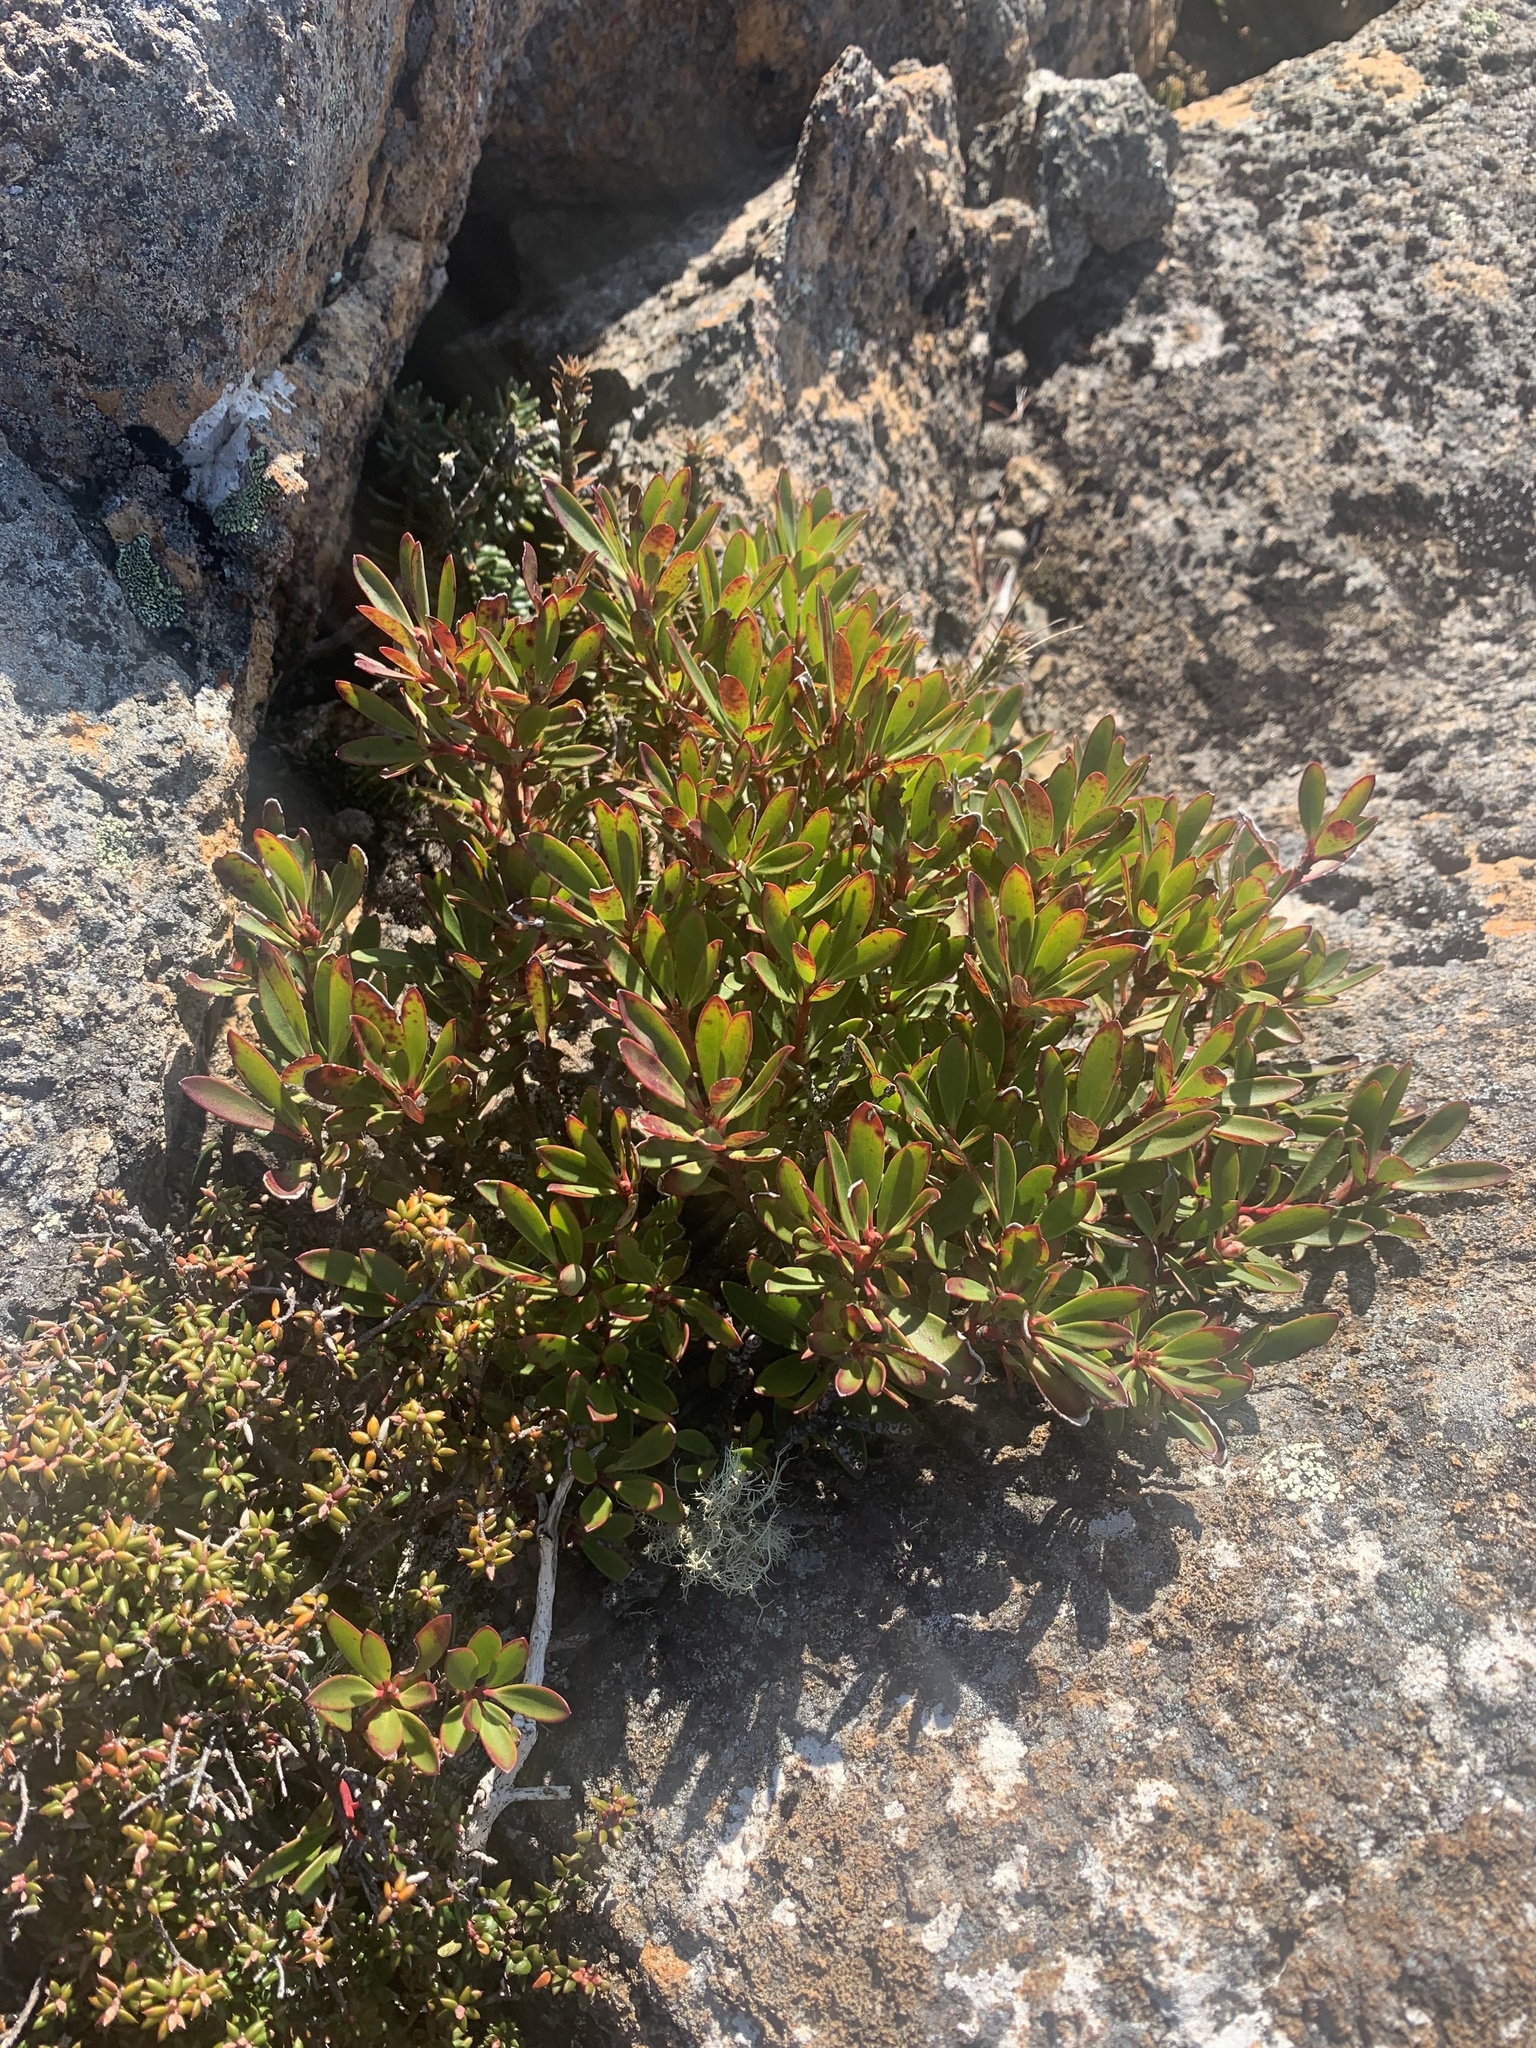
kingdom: Plantae
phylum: Tracheophyta
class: Magnoliopsida
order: Canellales
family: Winteraceae
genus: Drimys
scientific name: Drimys aromatica
